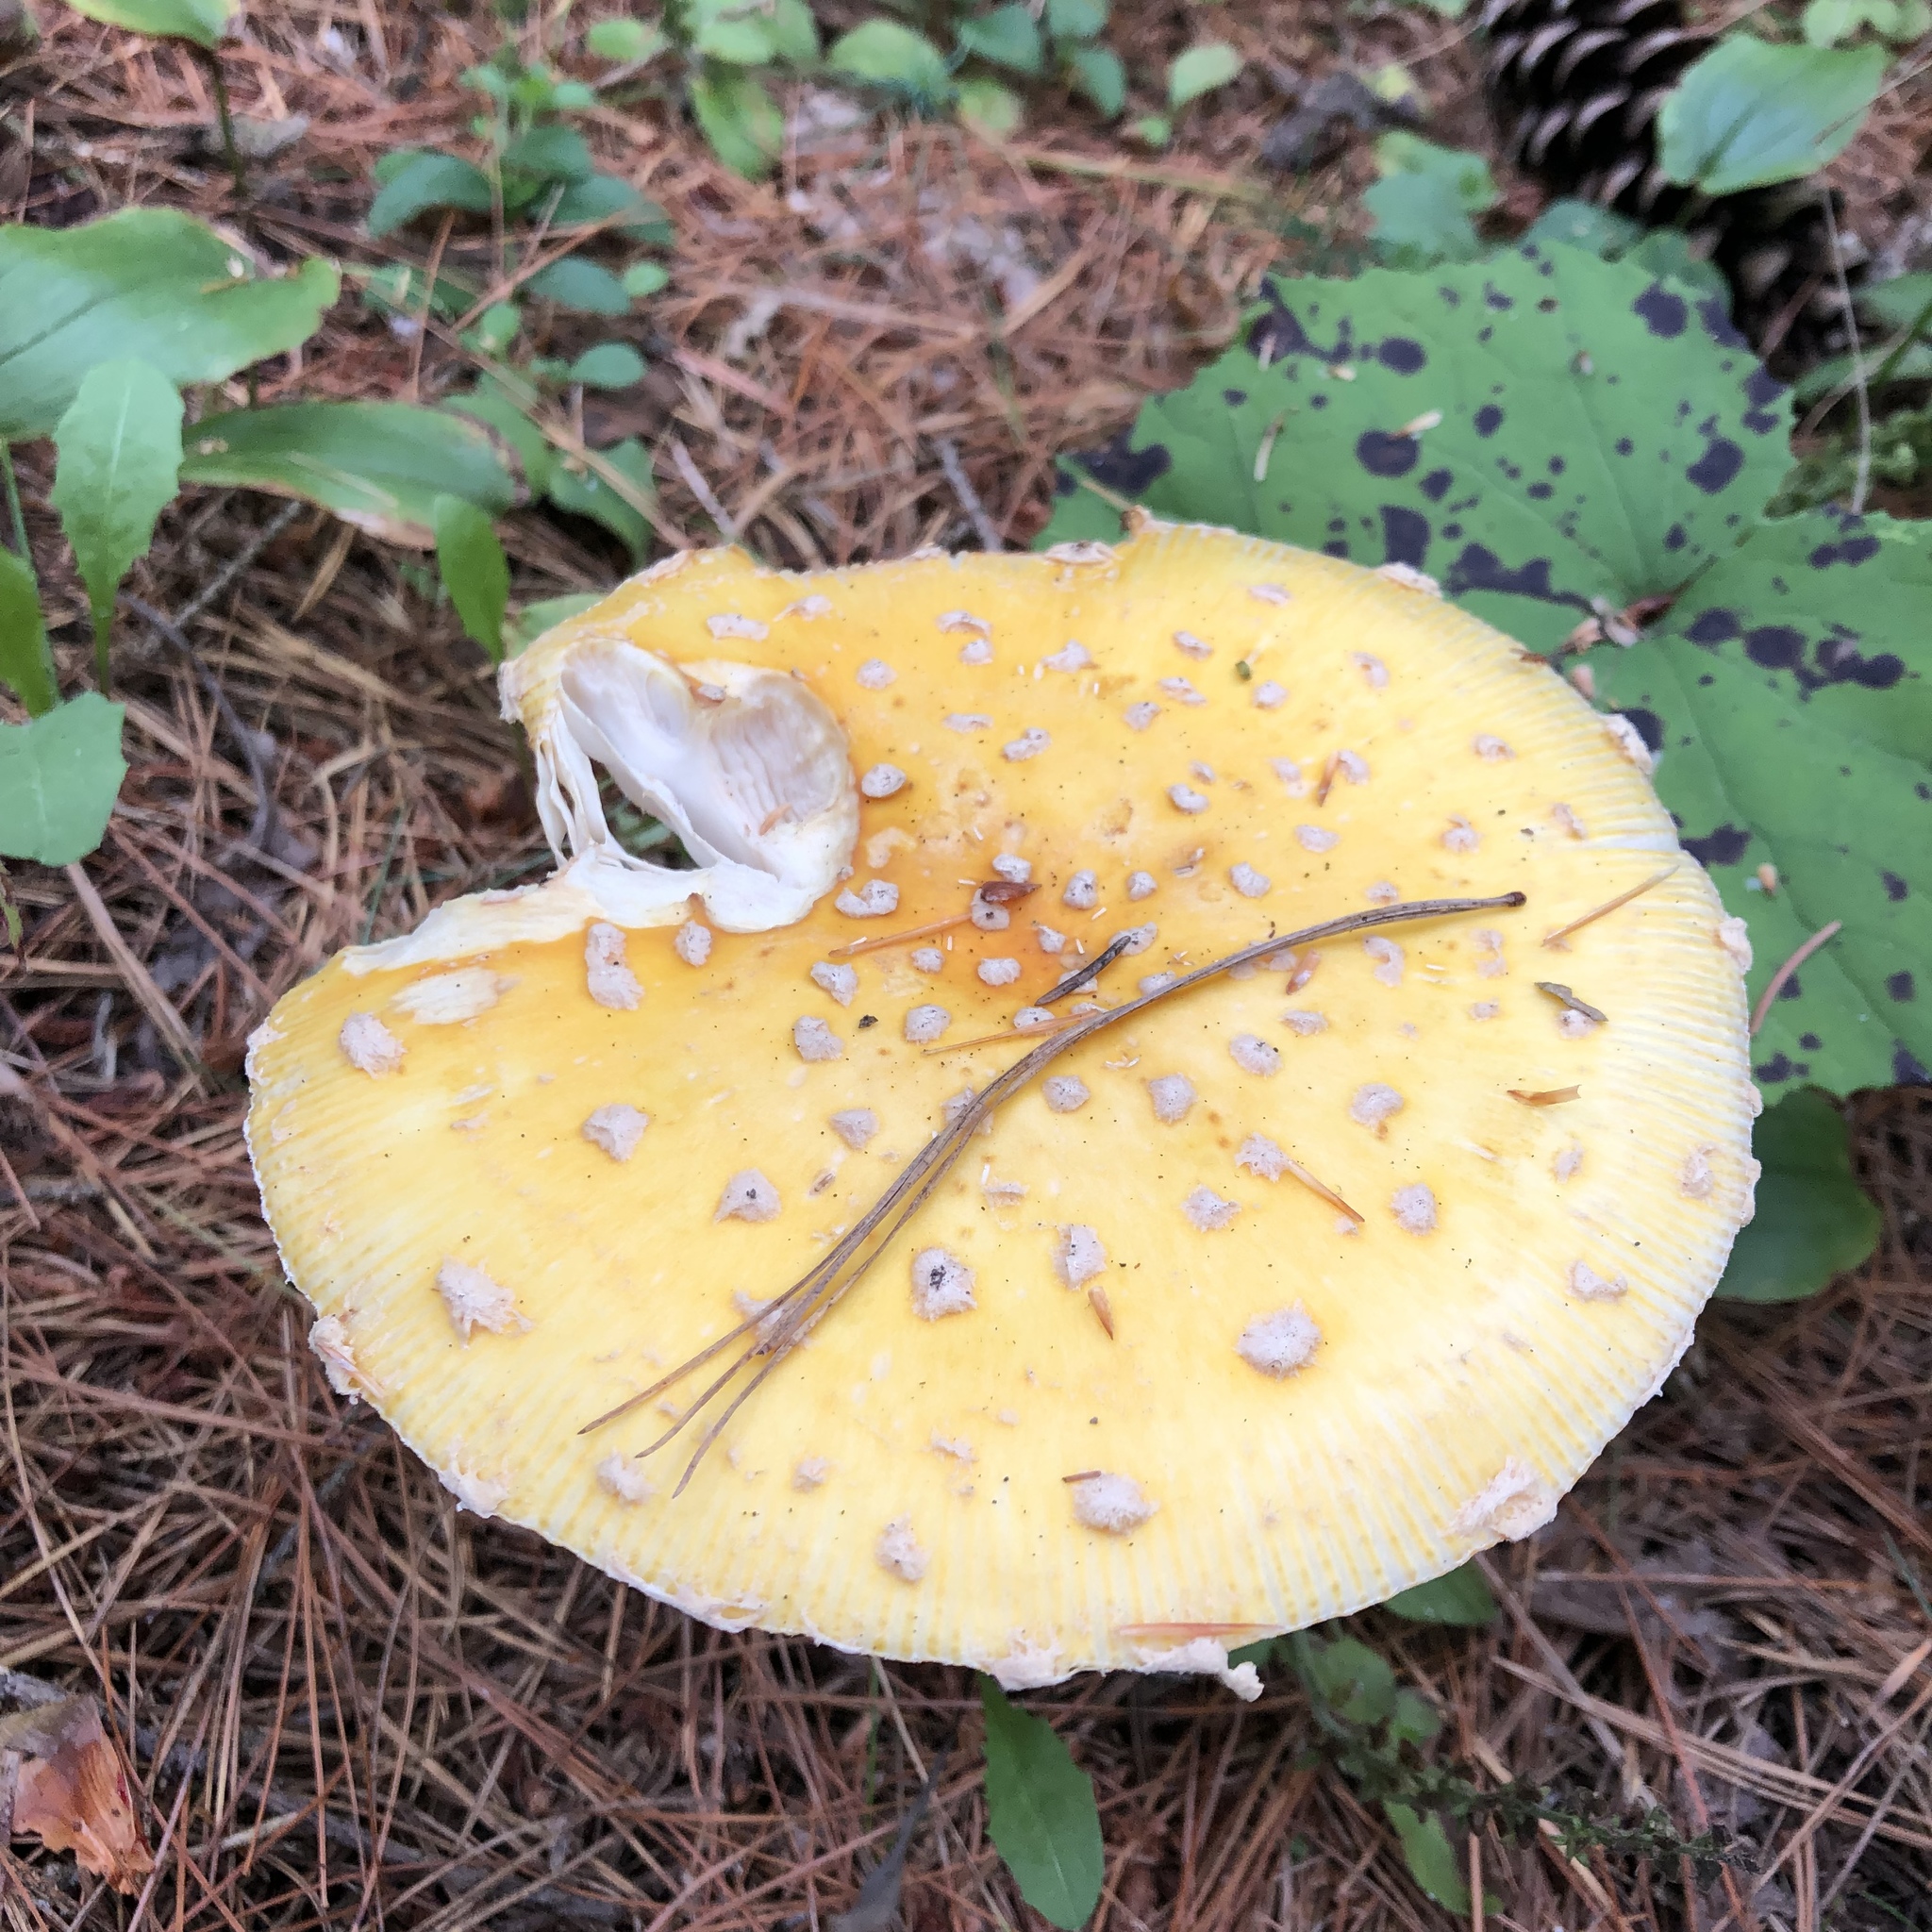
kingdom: Fungi
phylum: Basidiomycota
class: Agaricomycetes
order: Agaricales
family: Amanitaceae
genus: Amanita
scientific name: Amanita muscaria
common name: Fly agaric
